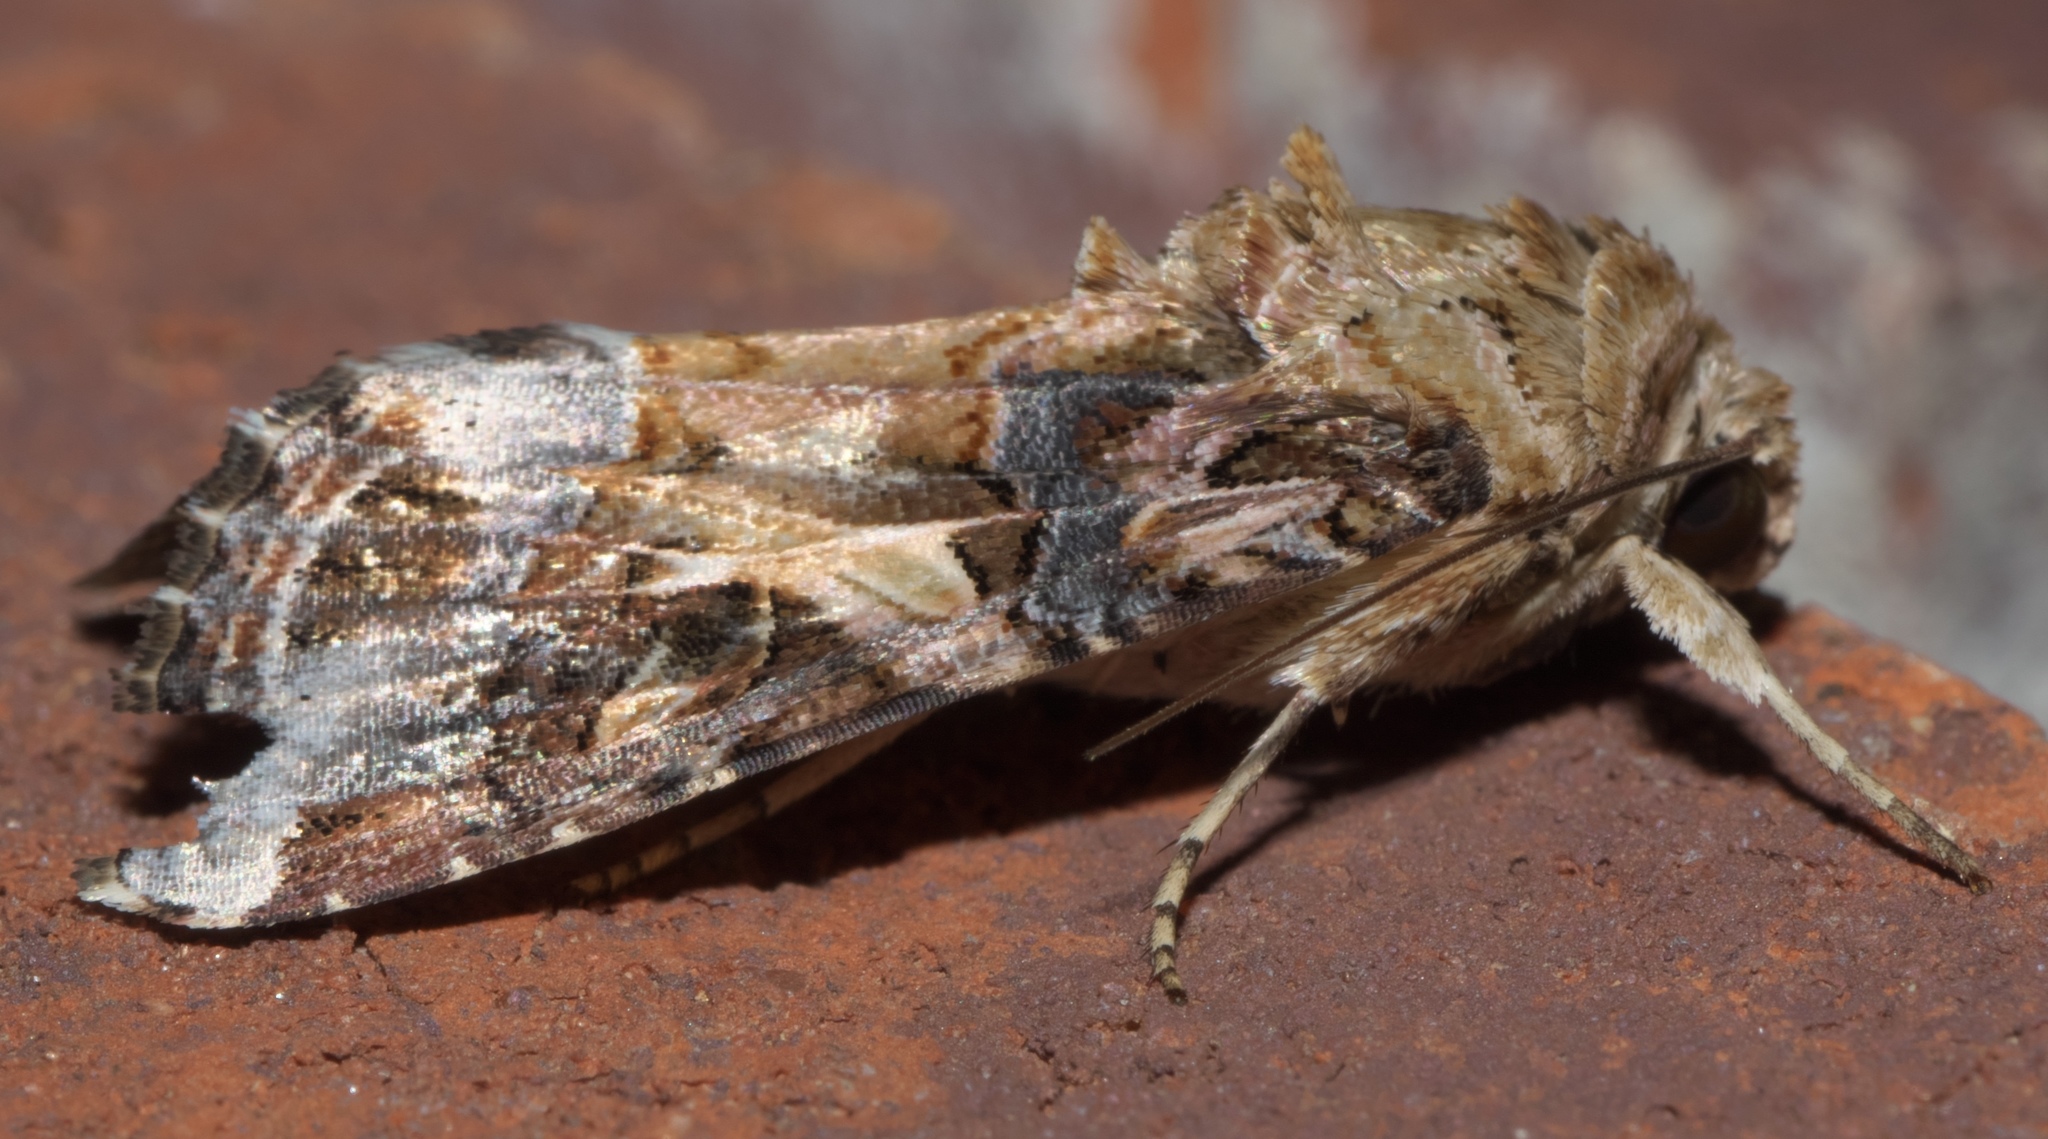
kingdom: Animalia
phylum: Arthropoda
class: Insecta
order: Lepidoptera
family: Noctuidae
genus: Spodoptera
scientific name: Spodoptera ornithogalli
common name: Yellow-striped armyworm
